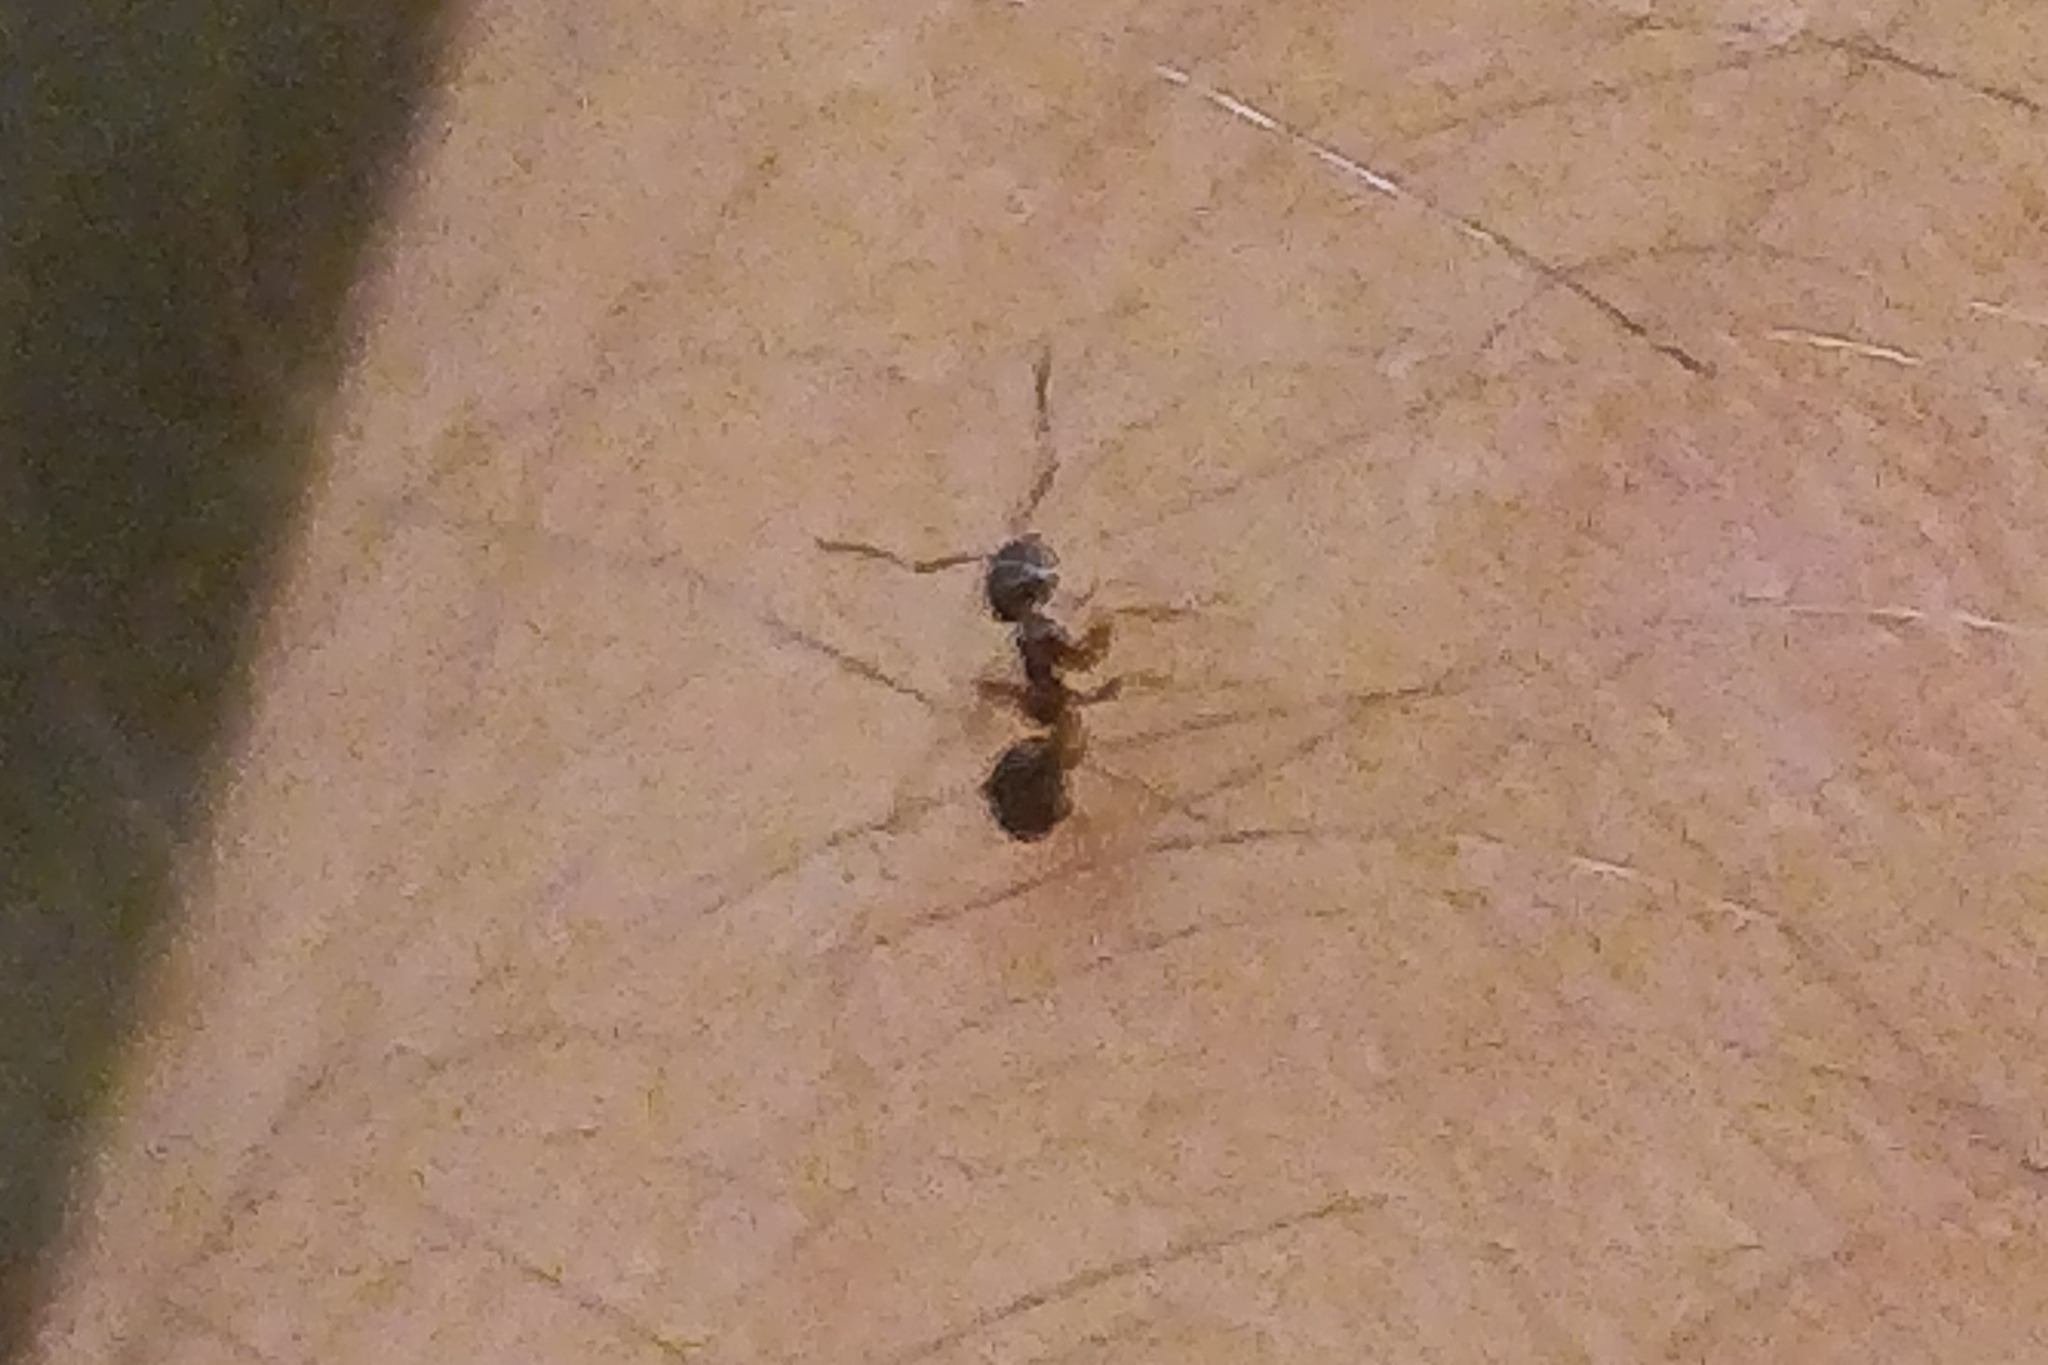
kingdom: Animalia
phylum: Arthropoda
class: Insecta
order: Hymenoptera
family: Formicidae
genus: Tapinoma
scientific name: Tapinoma sessile
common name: Odorous house ant
